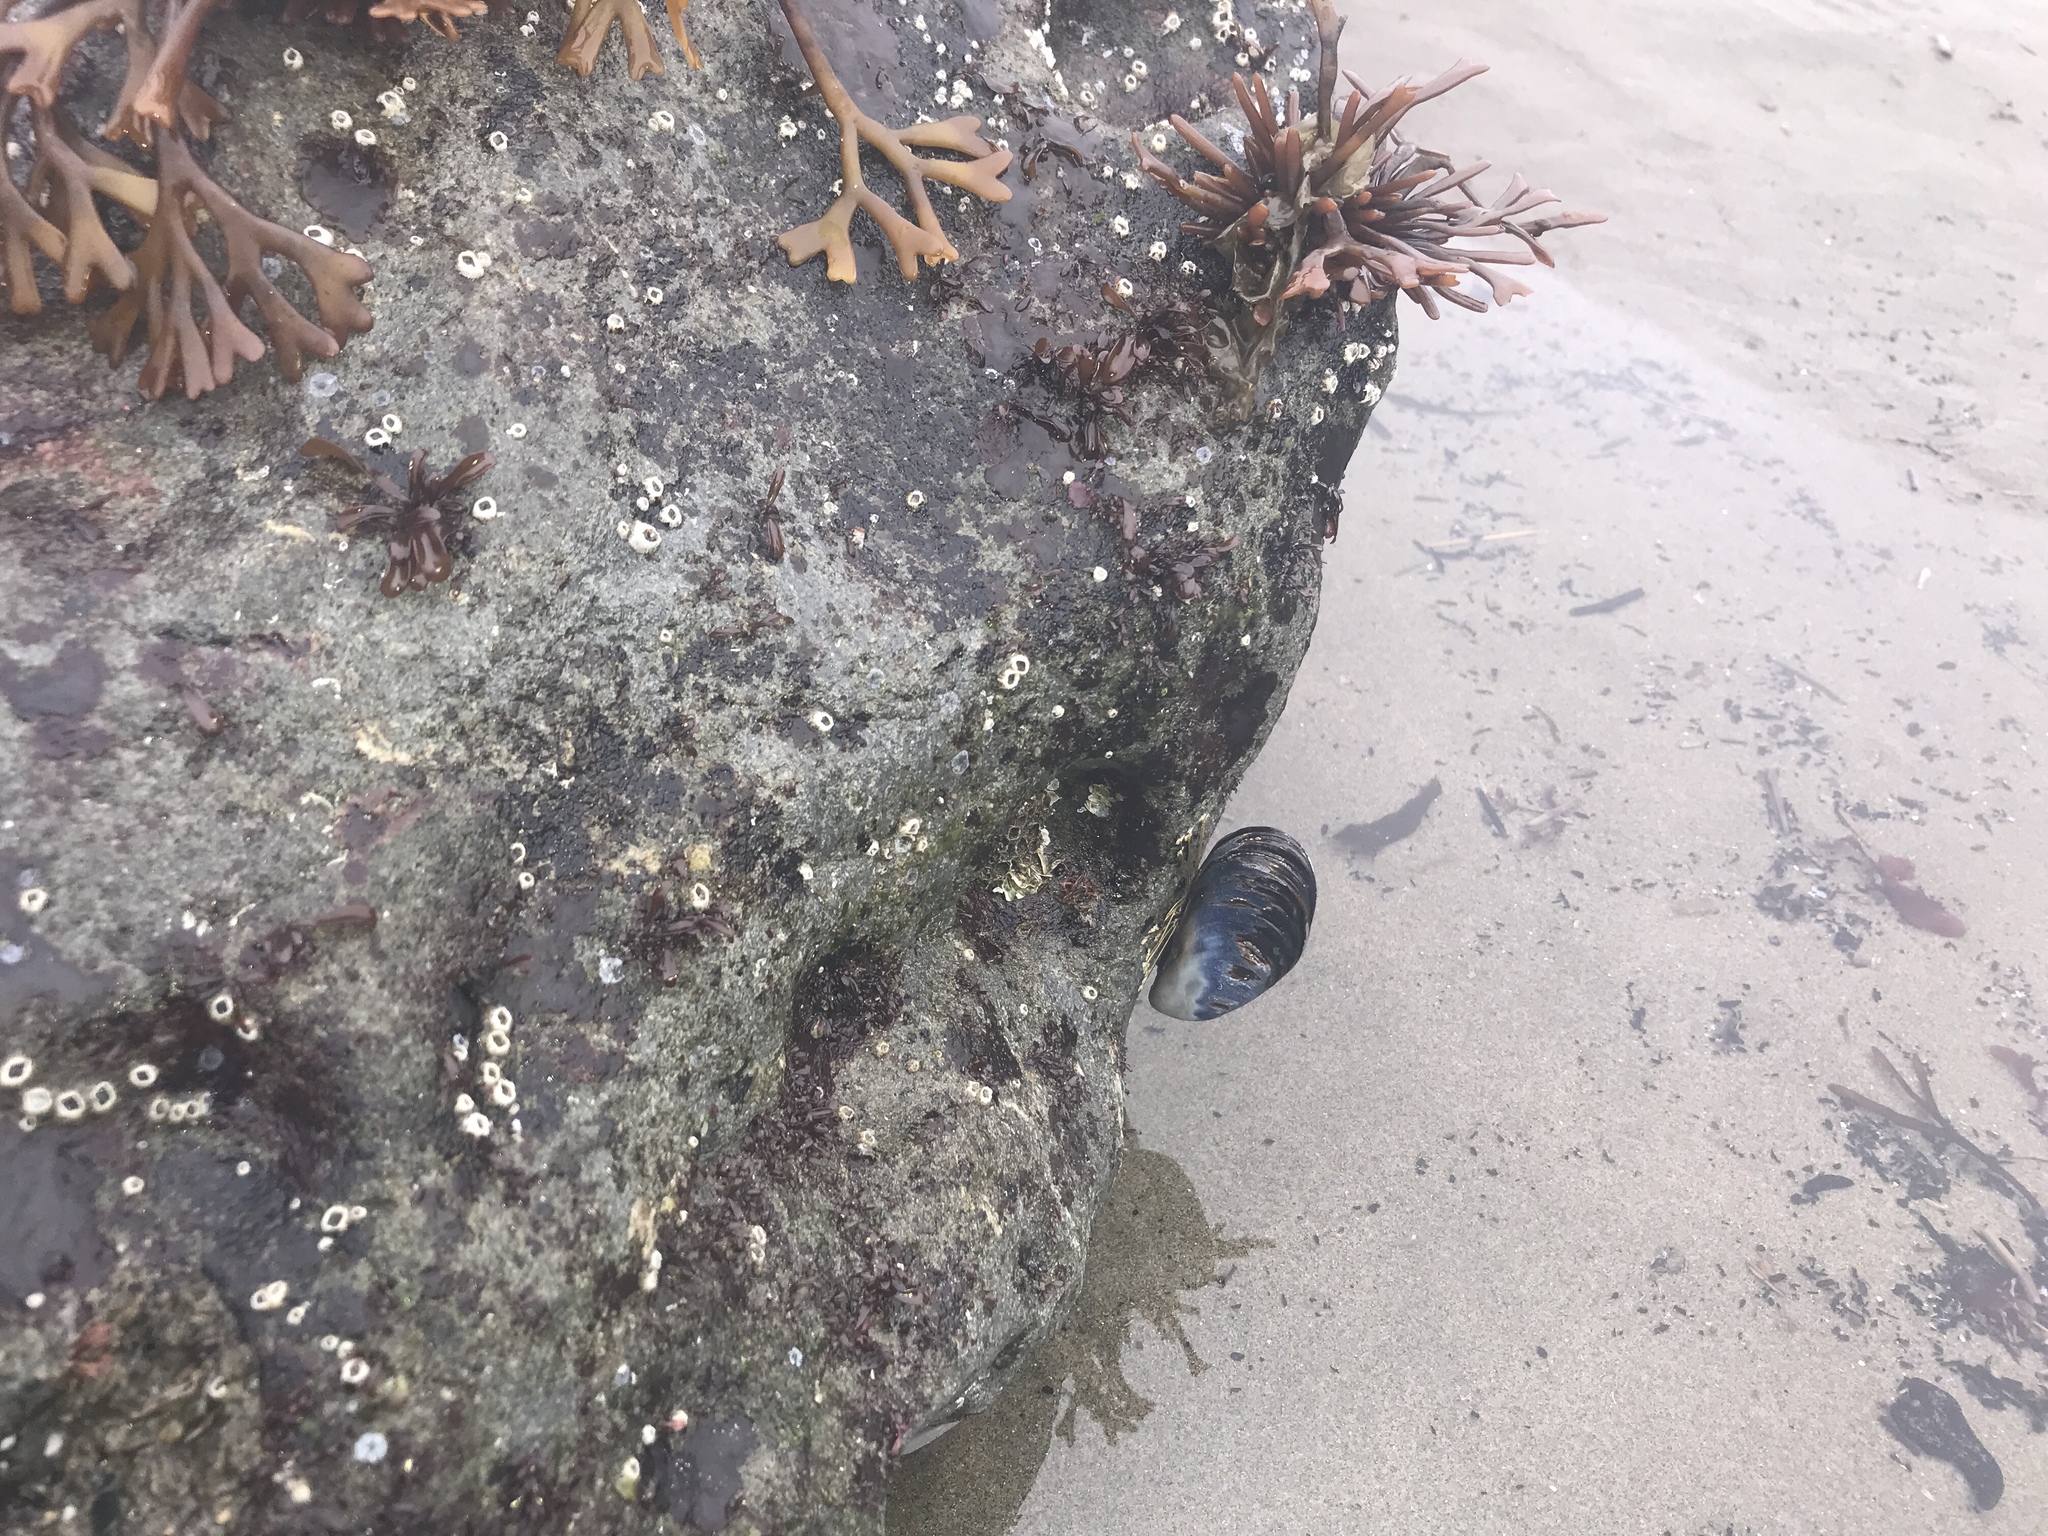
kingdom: Animalia
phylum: Mollusca
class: Bivalvia
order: Mytilida
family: Mytilidae
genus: Mytilus
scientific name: Mytilus californianus
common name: California mussel
